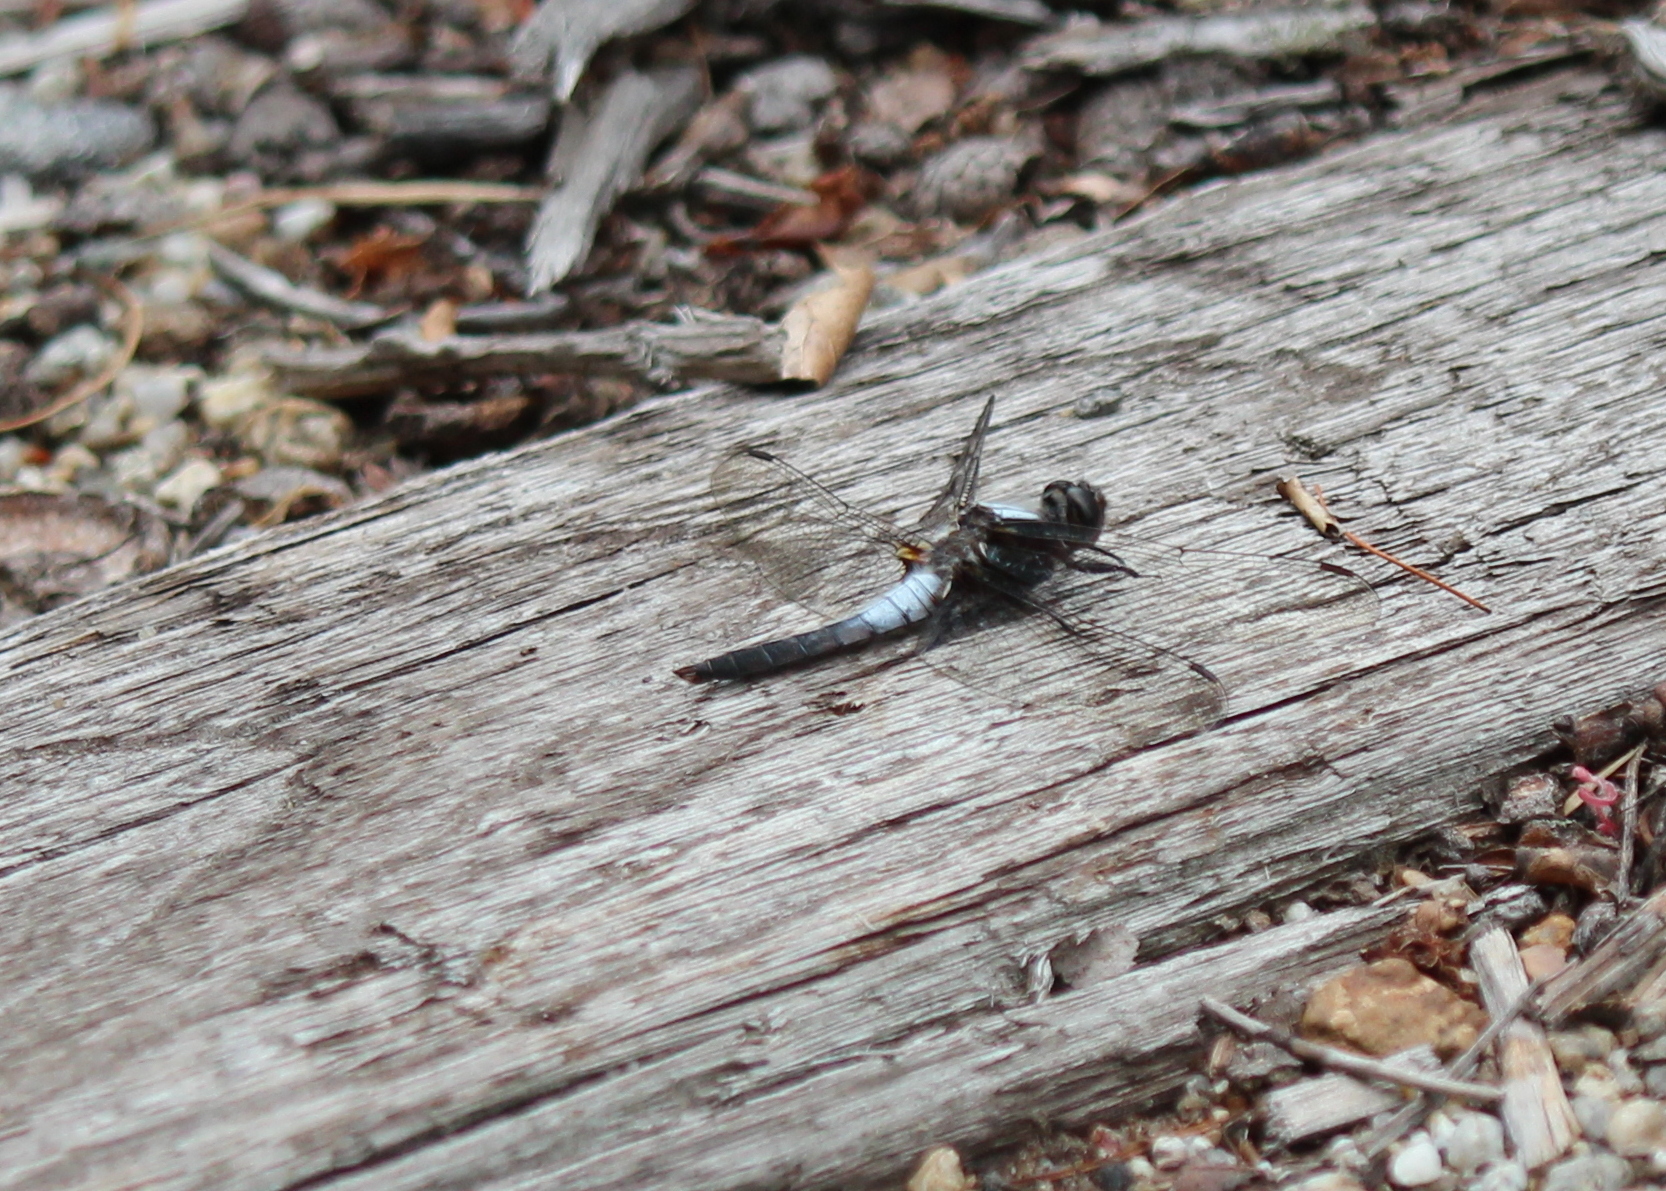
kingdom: Animalia
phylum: Arthropoda
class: Insecta
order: Odonata
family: Libellulidae
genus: Ladona
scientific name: Ladona julia
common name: Chalk-fronted corporal
